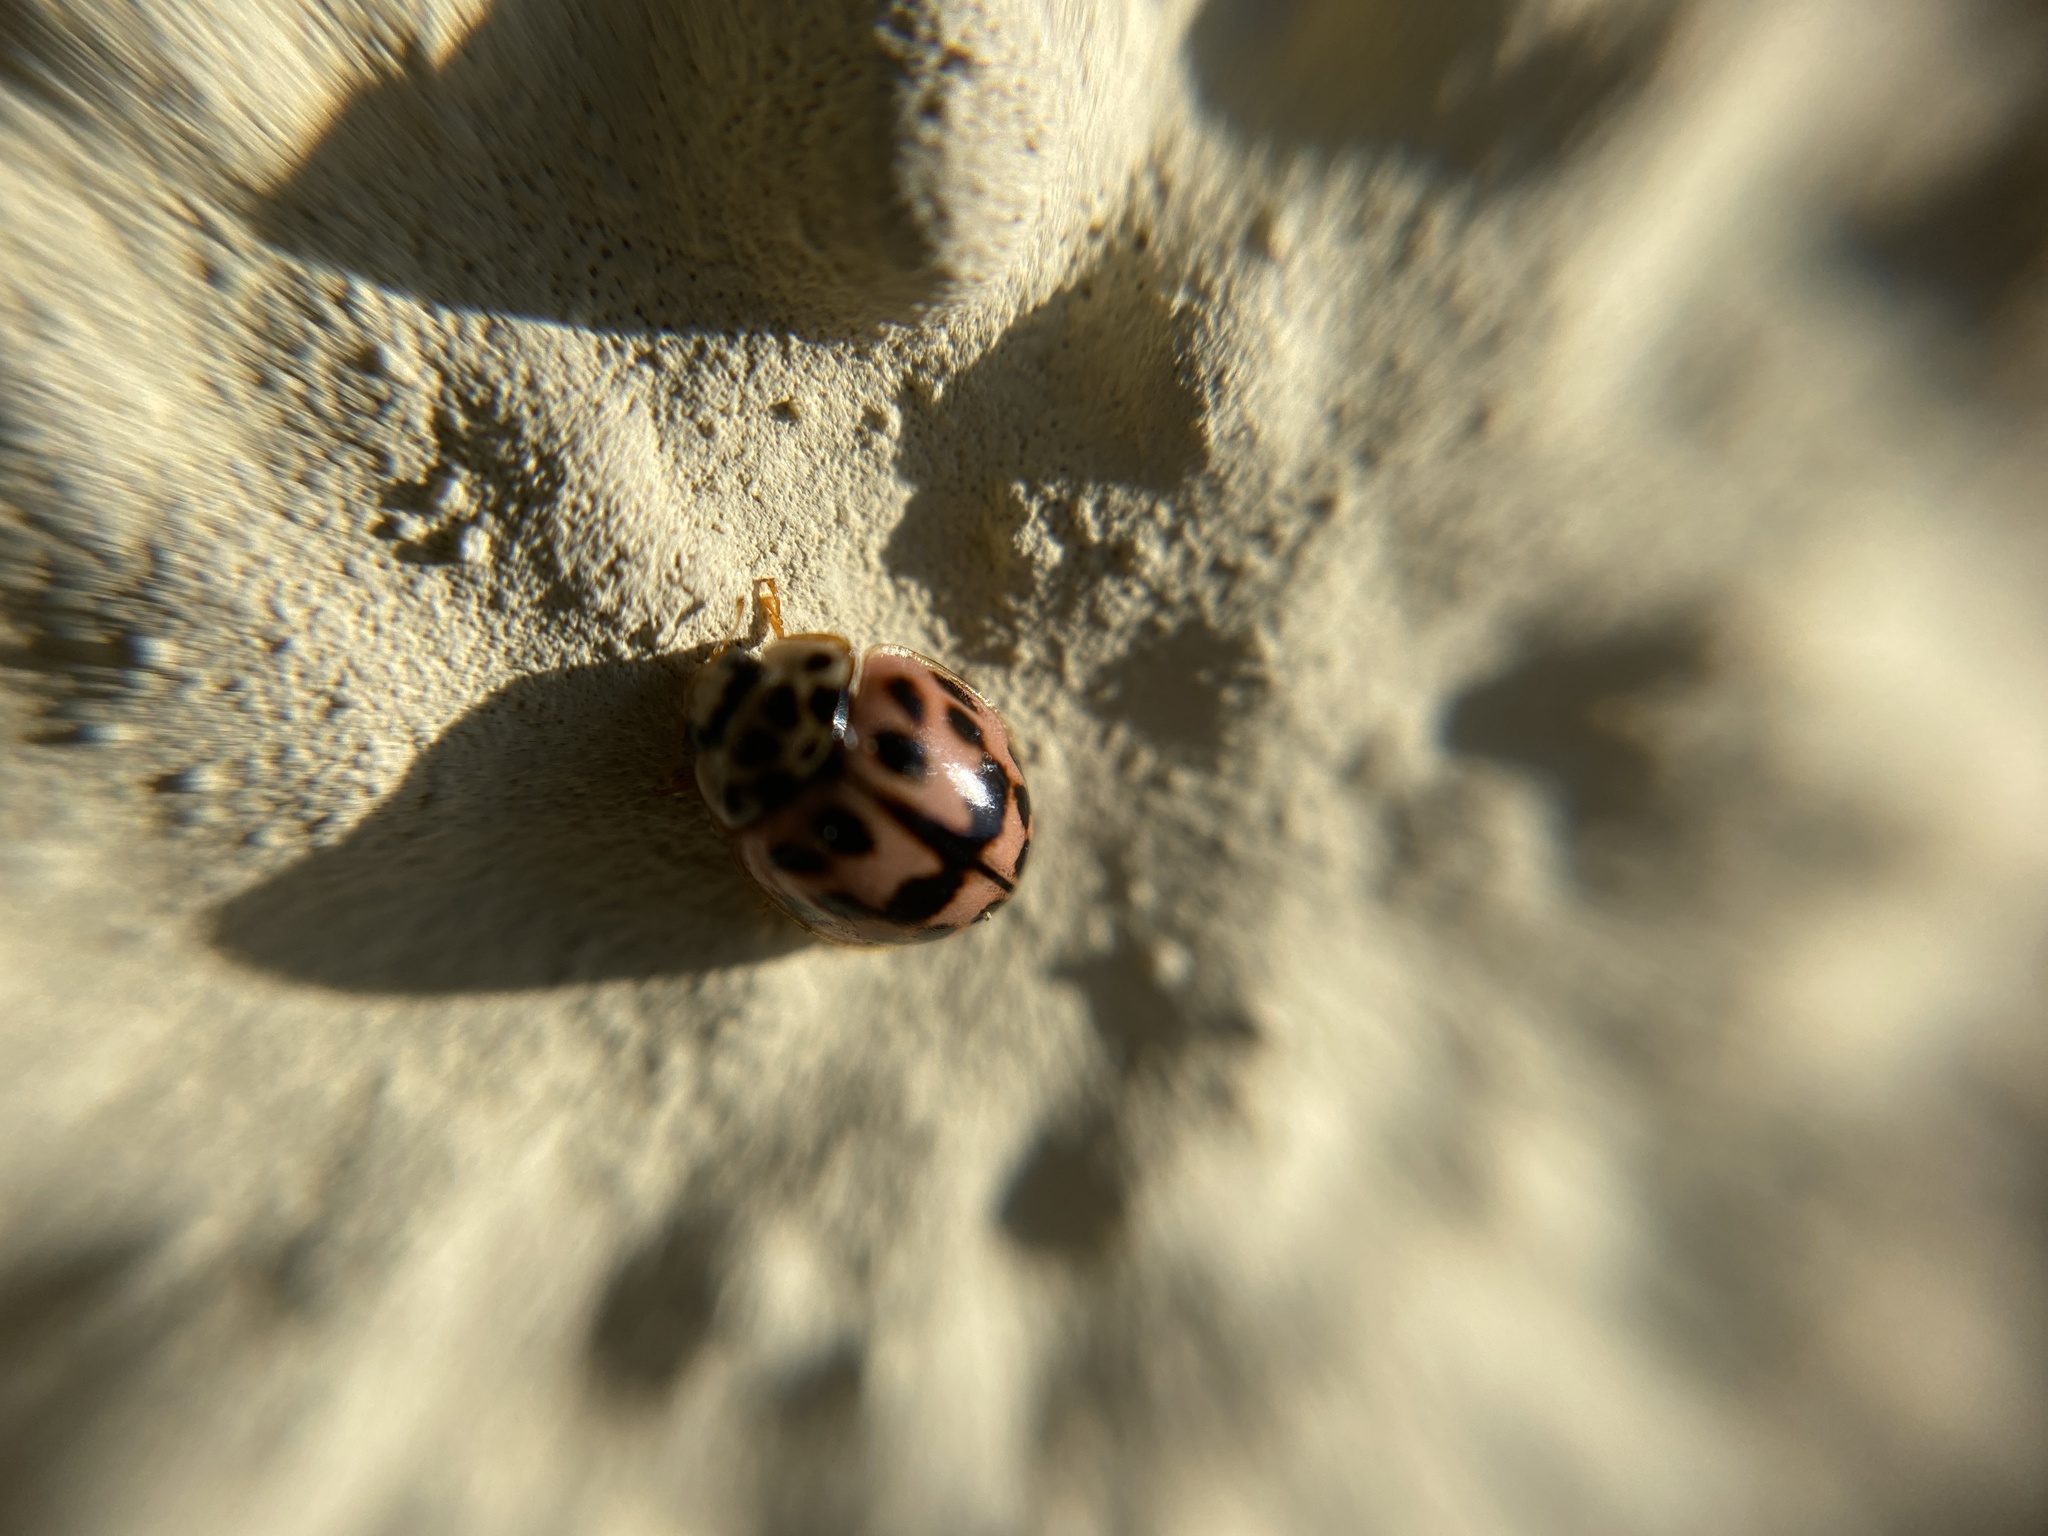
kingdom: Animalia
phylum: Arthropoda
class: Insecta
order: Coleoptera
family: Coccinellidae
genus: Oenopia
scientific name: Oenopia conglobata
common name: Ladybird beetle
